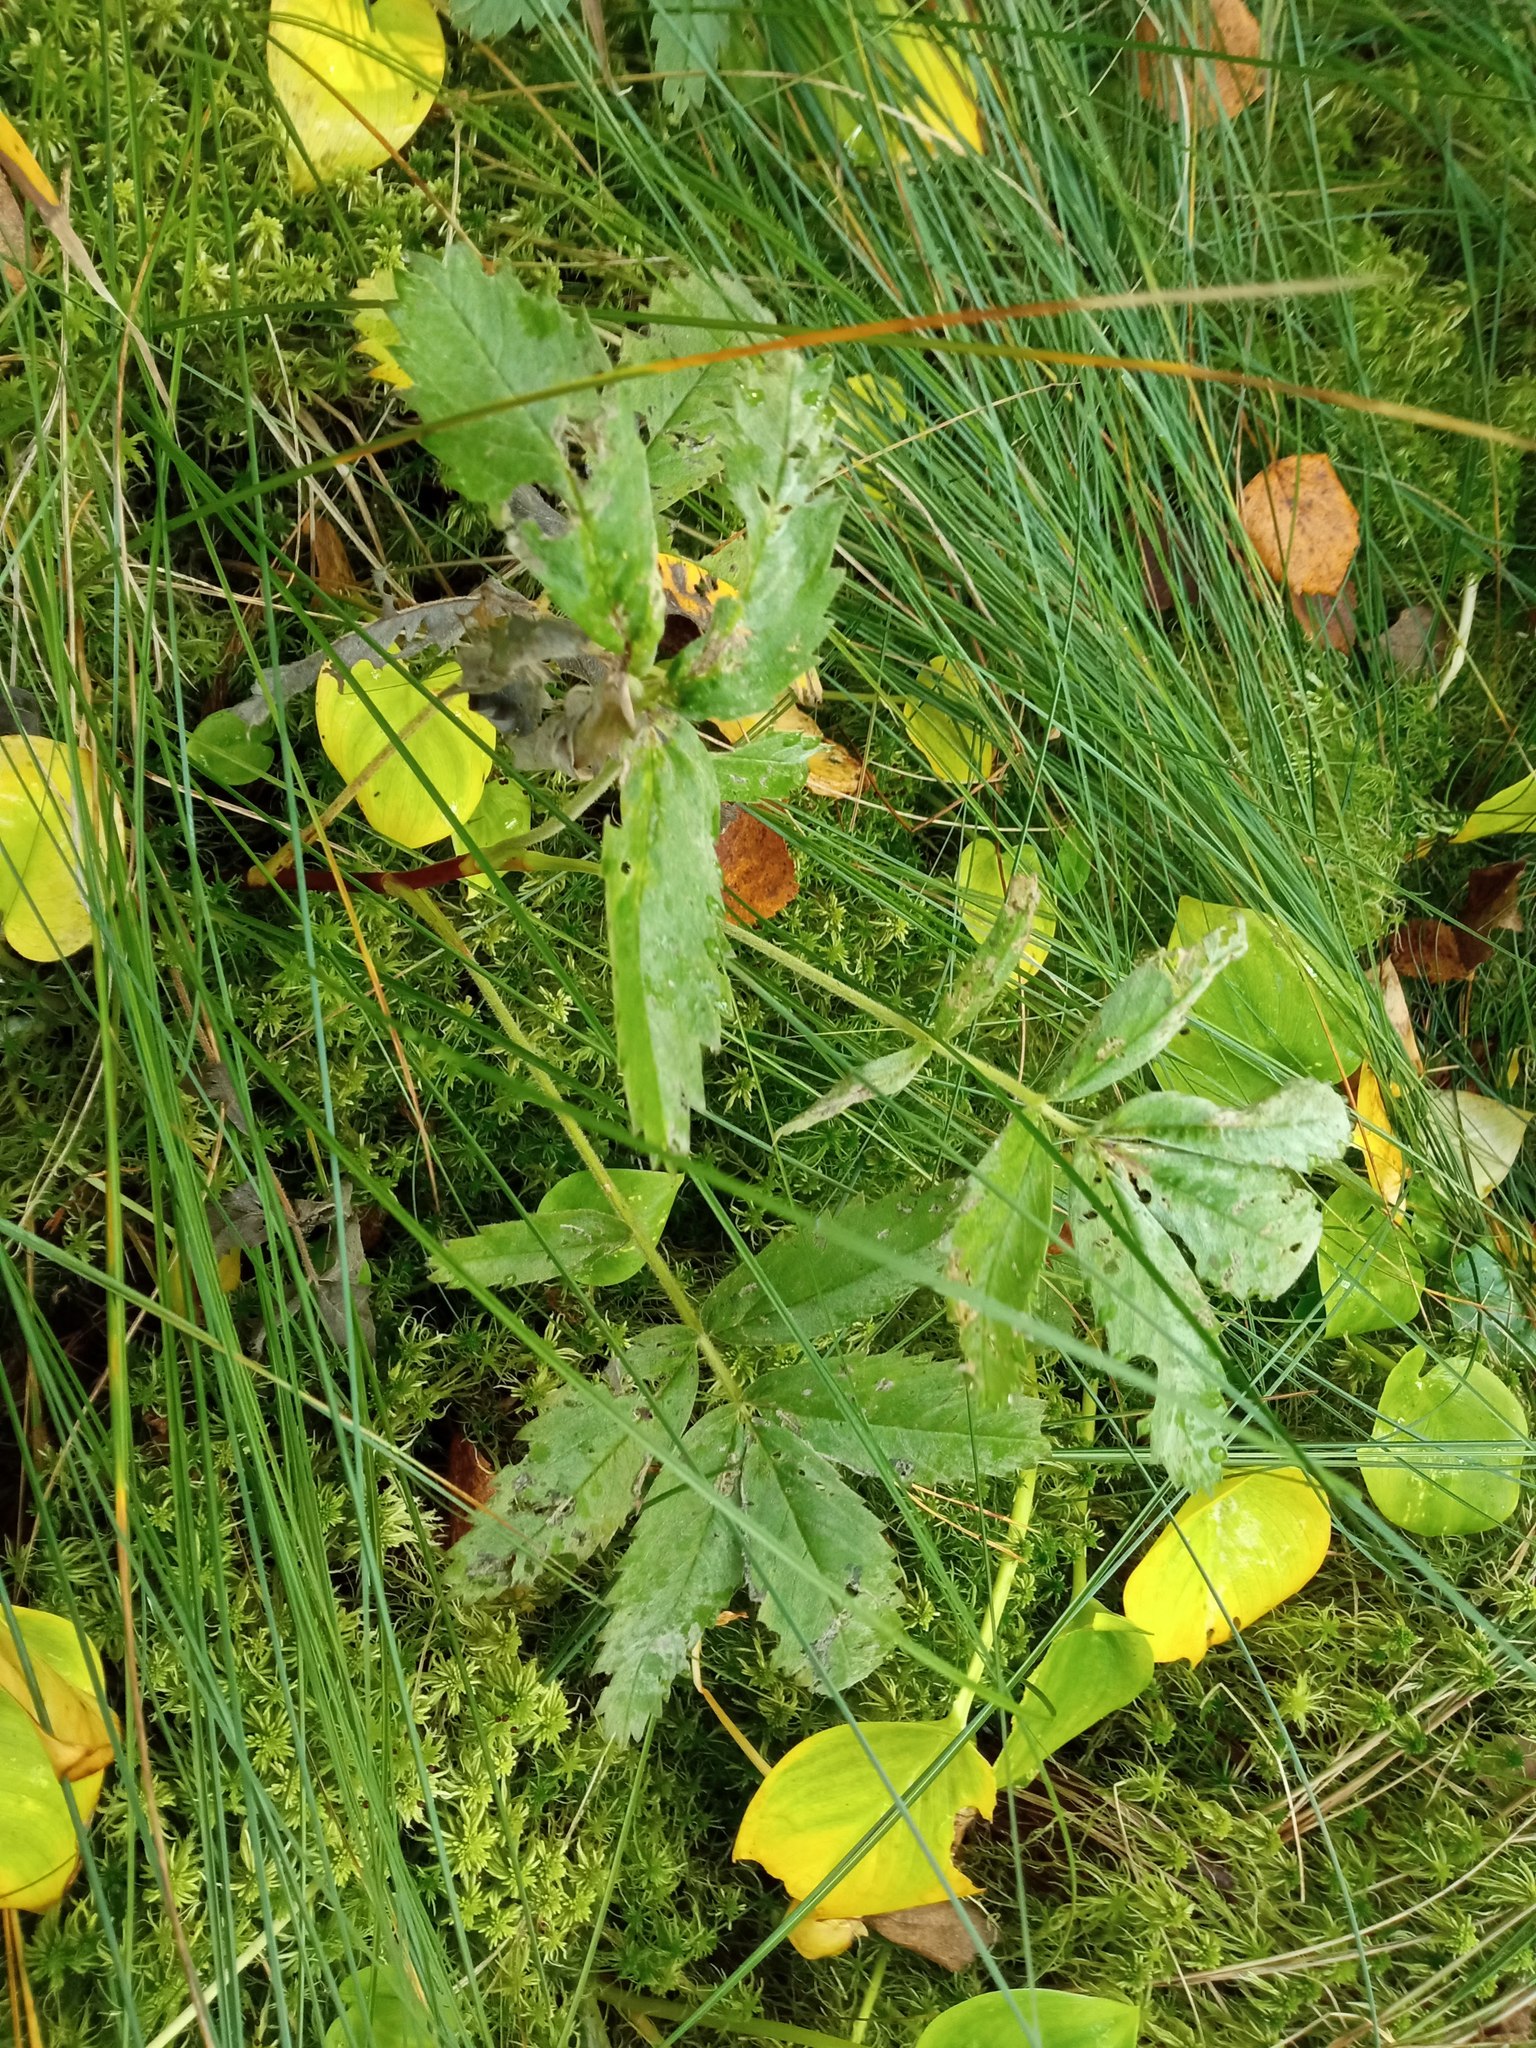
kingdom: Plantae
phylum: Tracheophyta
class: Magnoliopsida
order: Rosales
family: Rosaceae
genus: Comarum
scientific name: Comarum palustre
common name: Marsh cinquefoil
